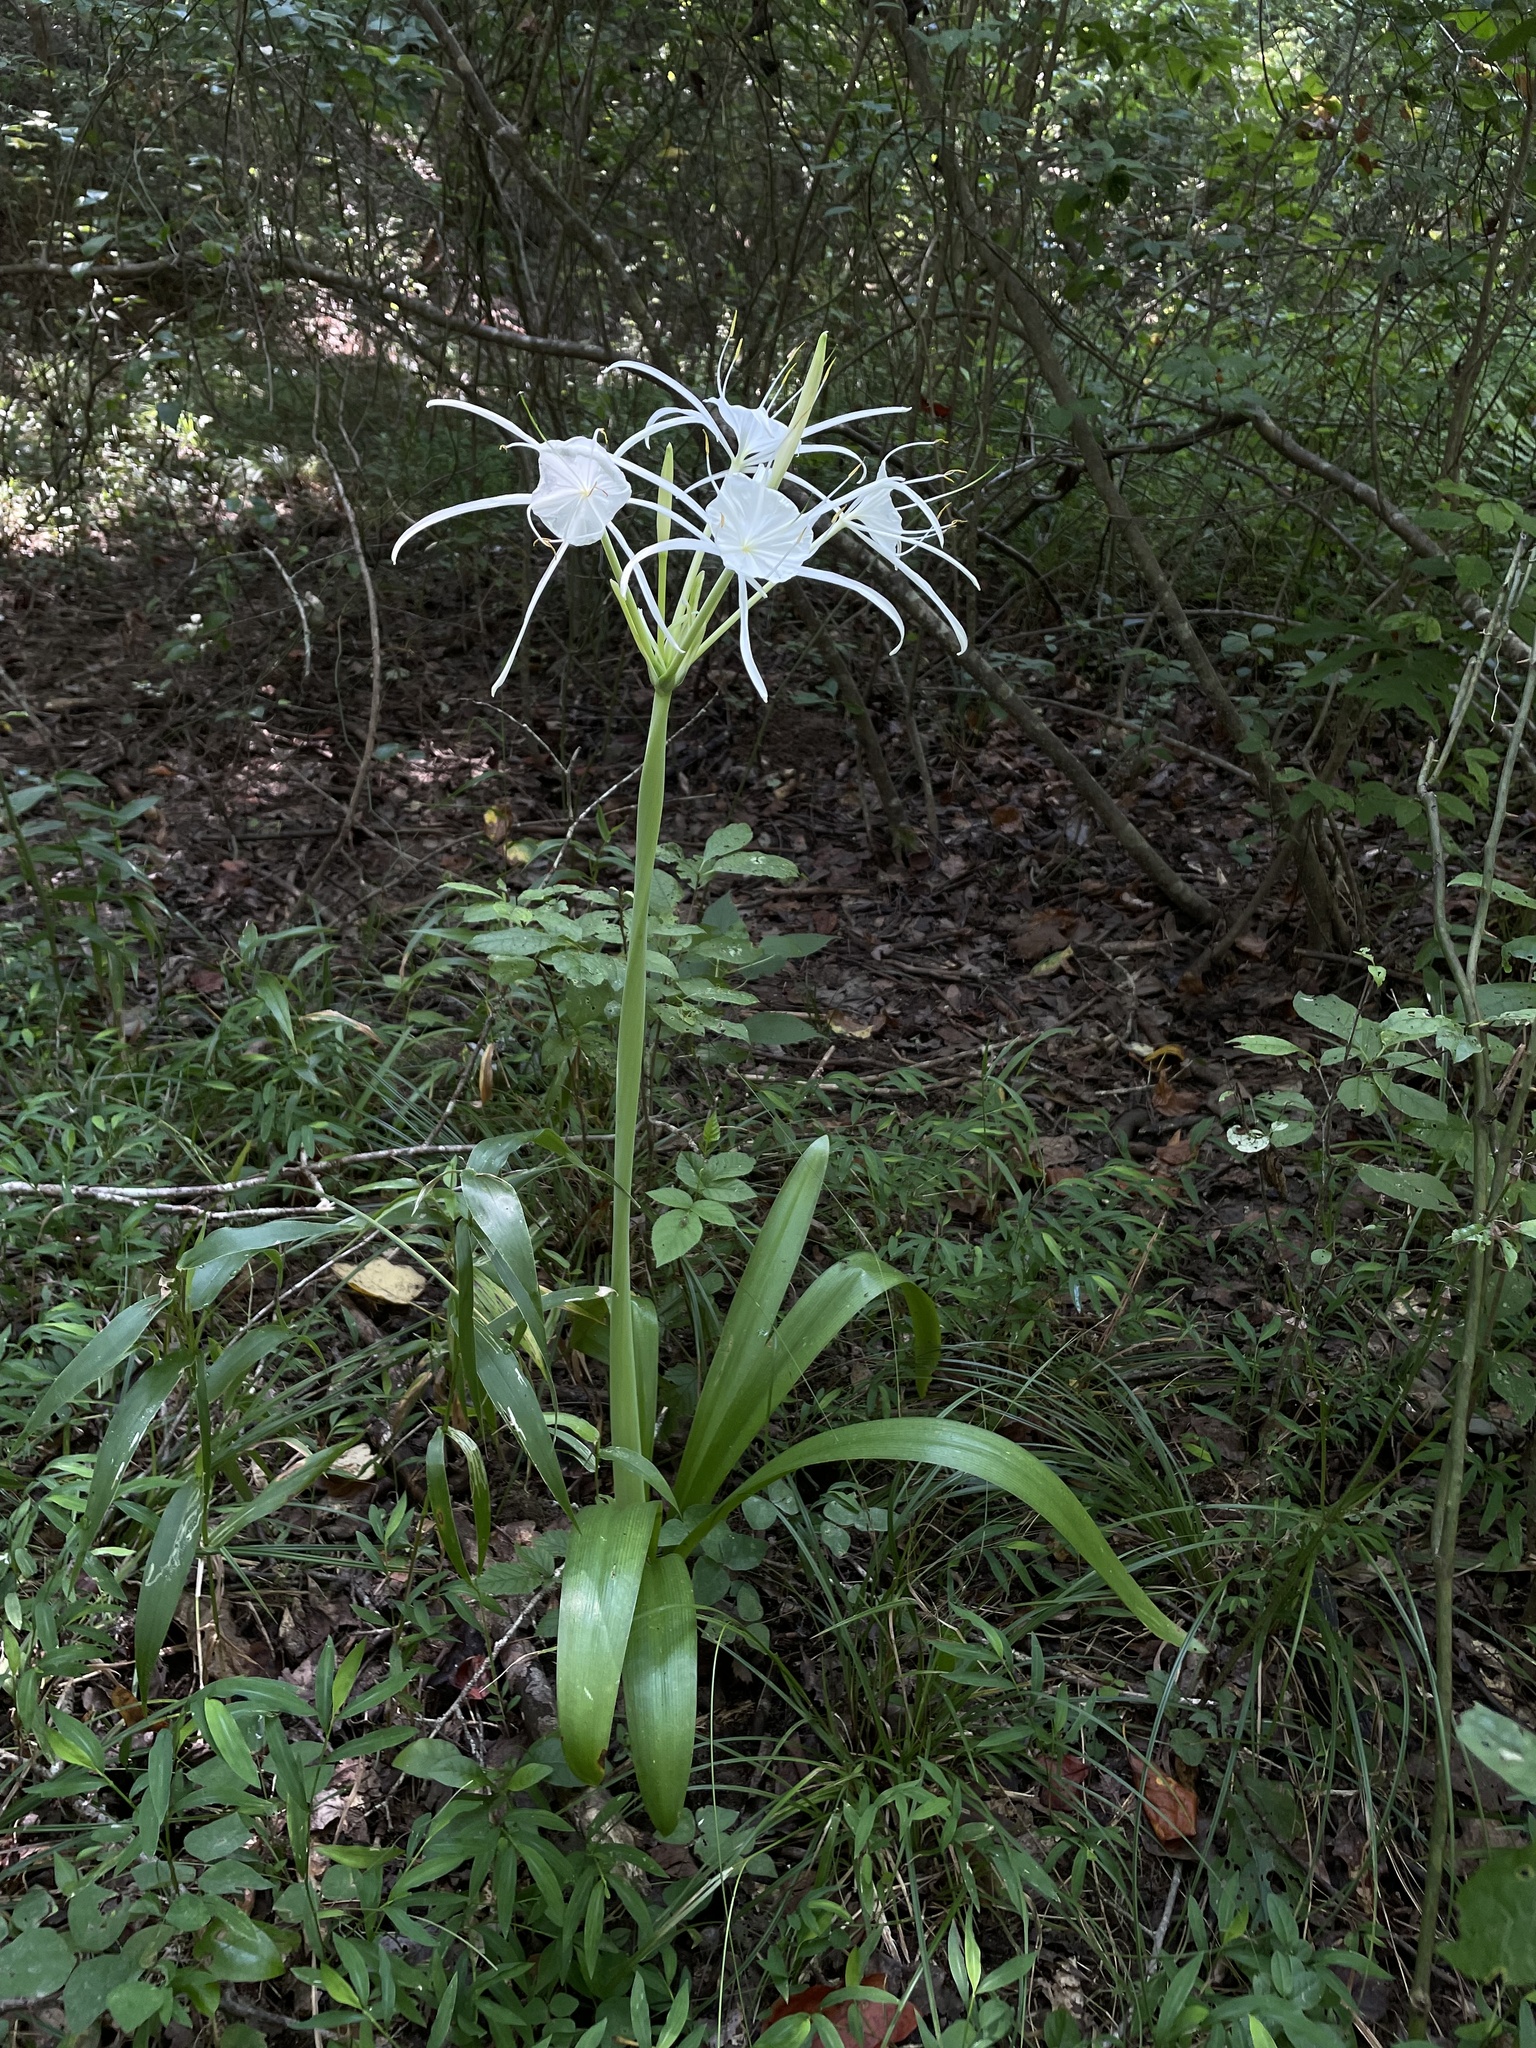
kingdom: Plantae
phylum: Tracheophyta
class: Liliopsida
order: Asparagales
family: Amaryllidaceae
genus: Hymenocallis
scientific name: Hymenocallis occidentalis
